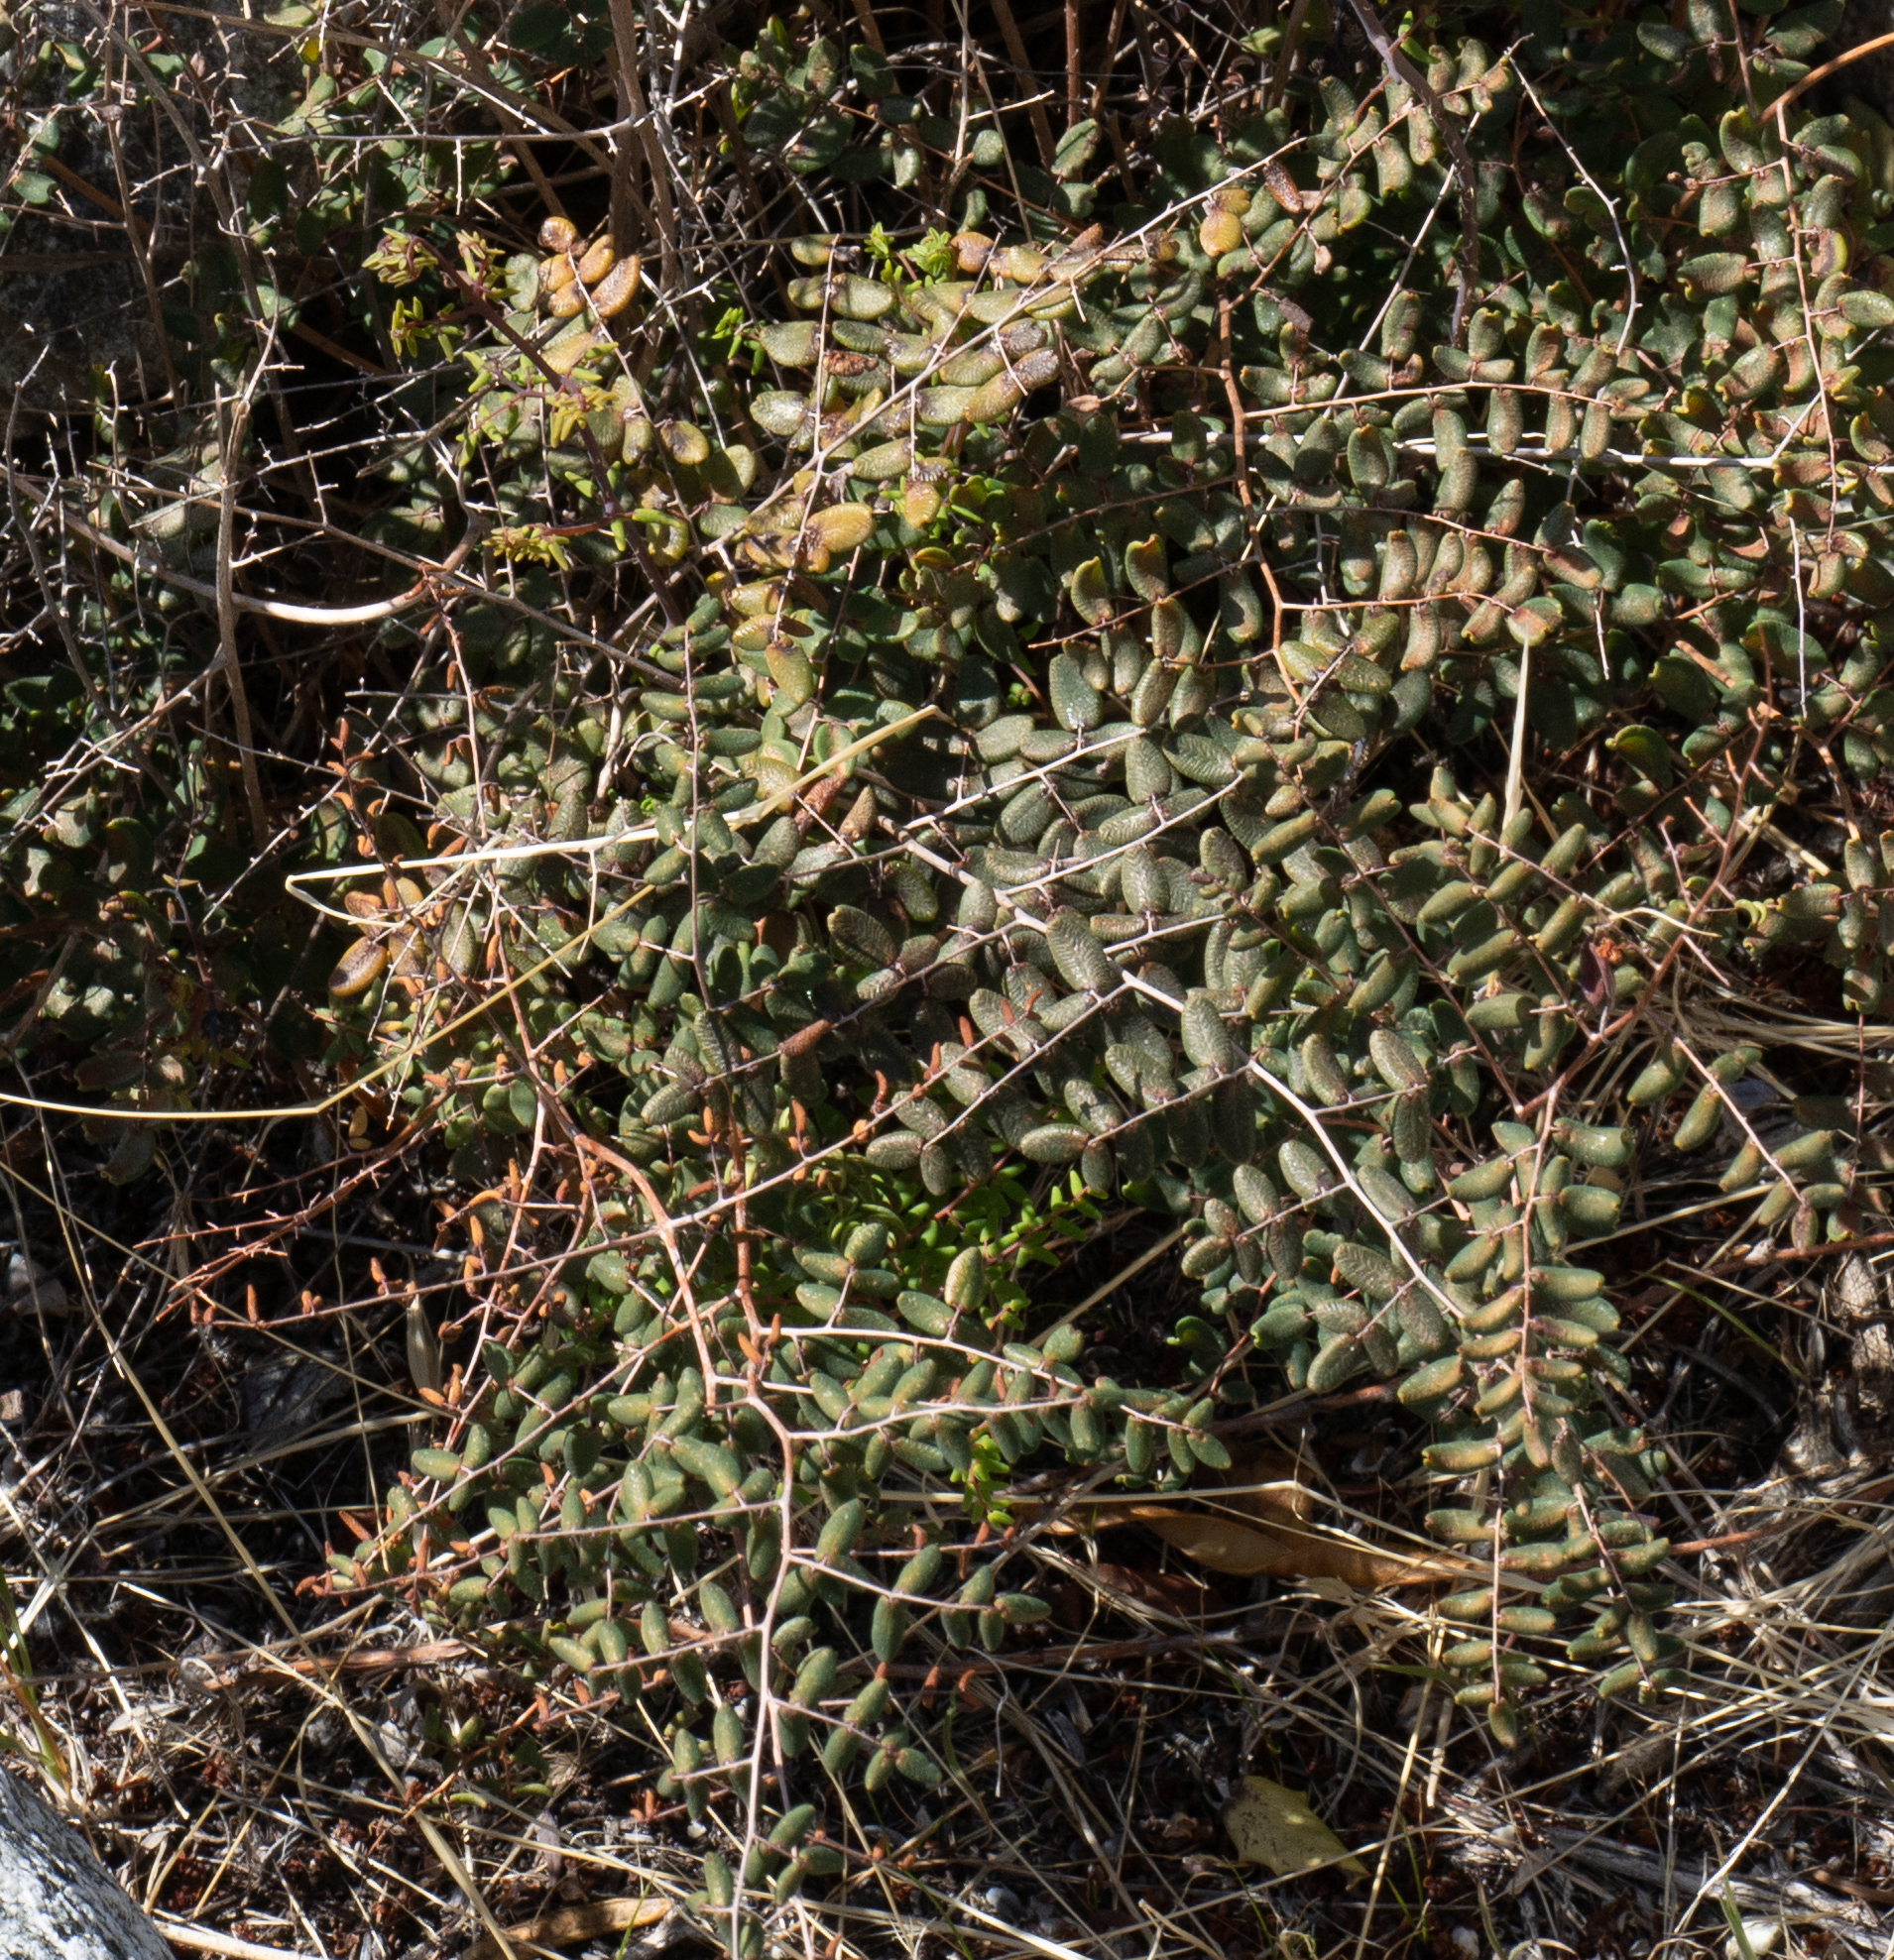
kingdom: Plantae
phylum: Tracheophyta
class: Polypodiopsida
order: Polypodiales
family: Pteridaceae
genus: Pellaea
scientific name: Pellaea andromedifolia
